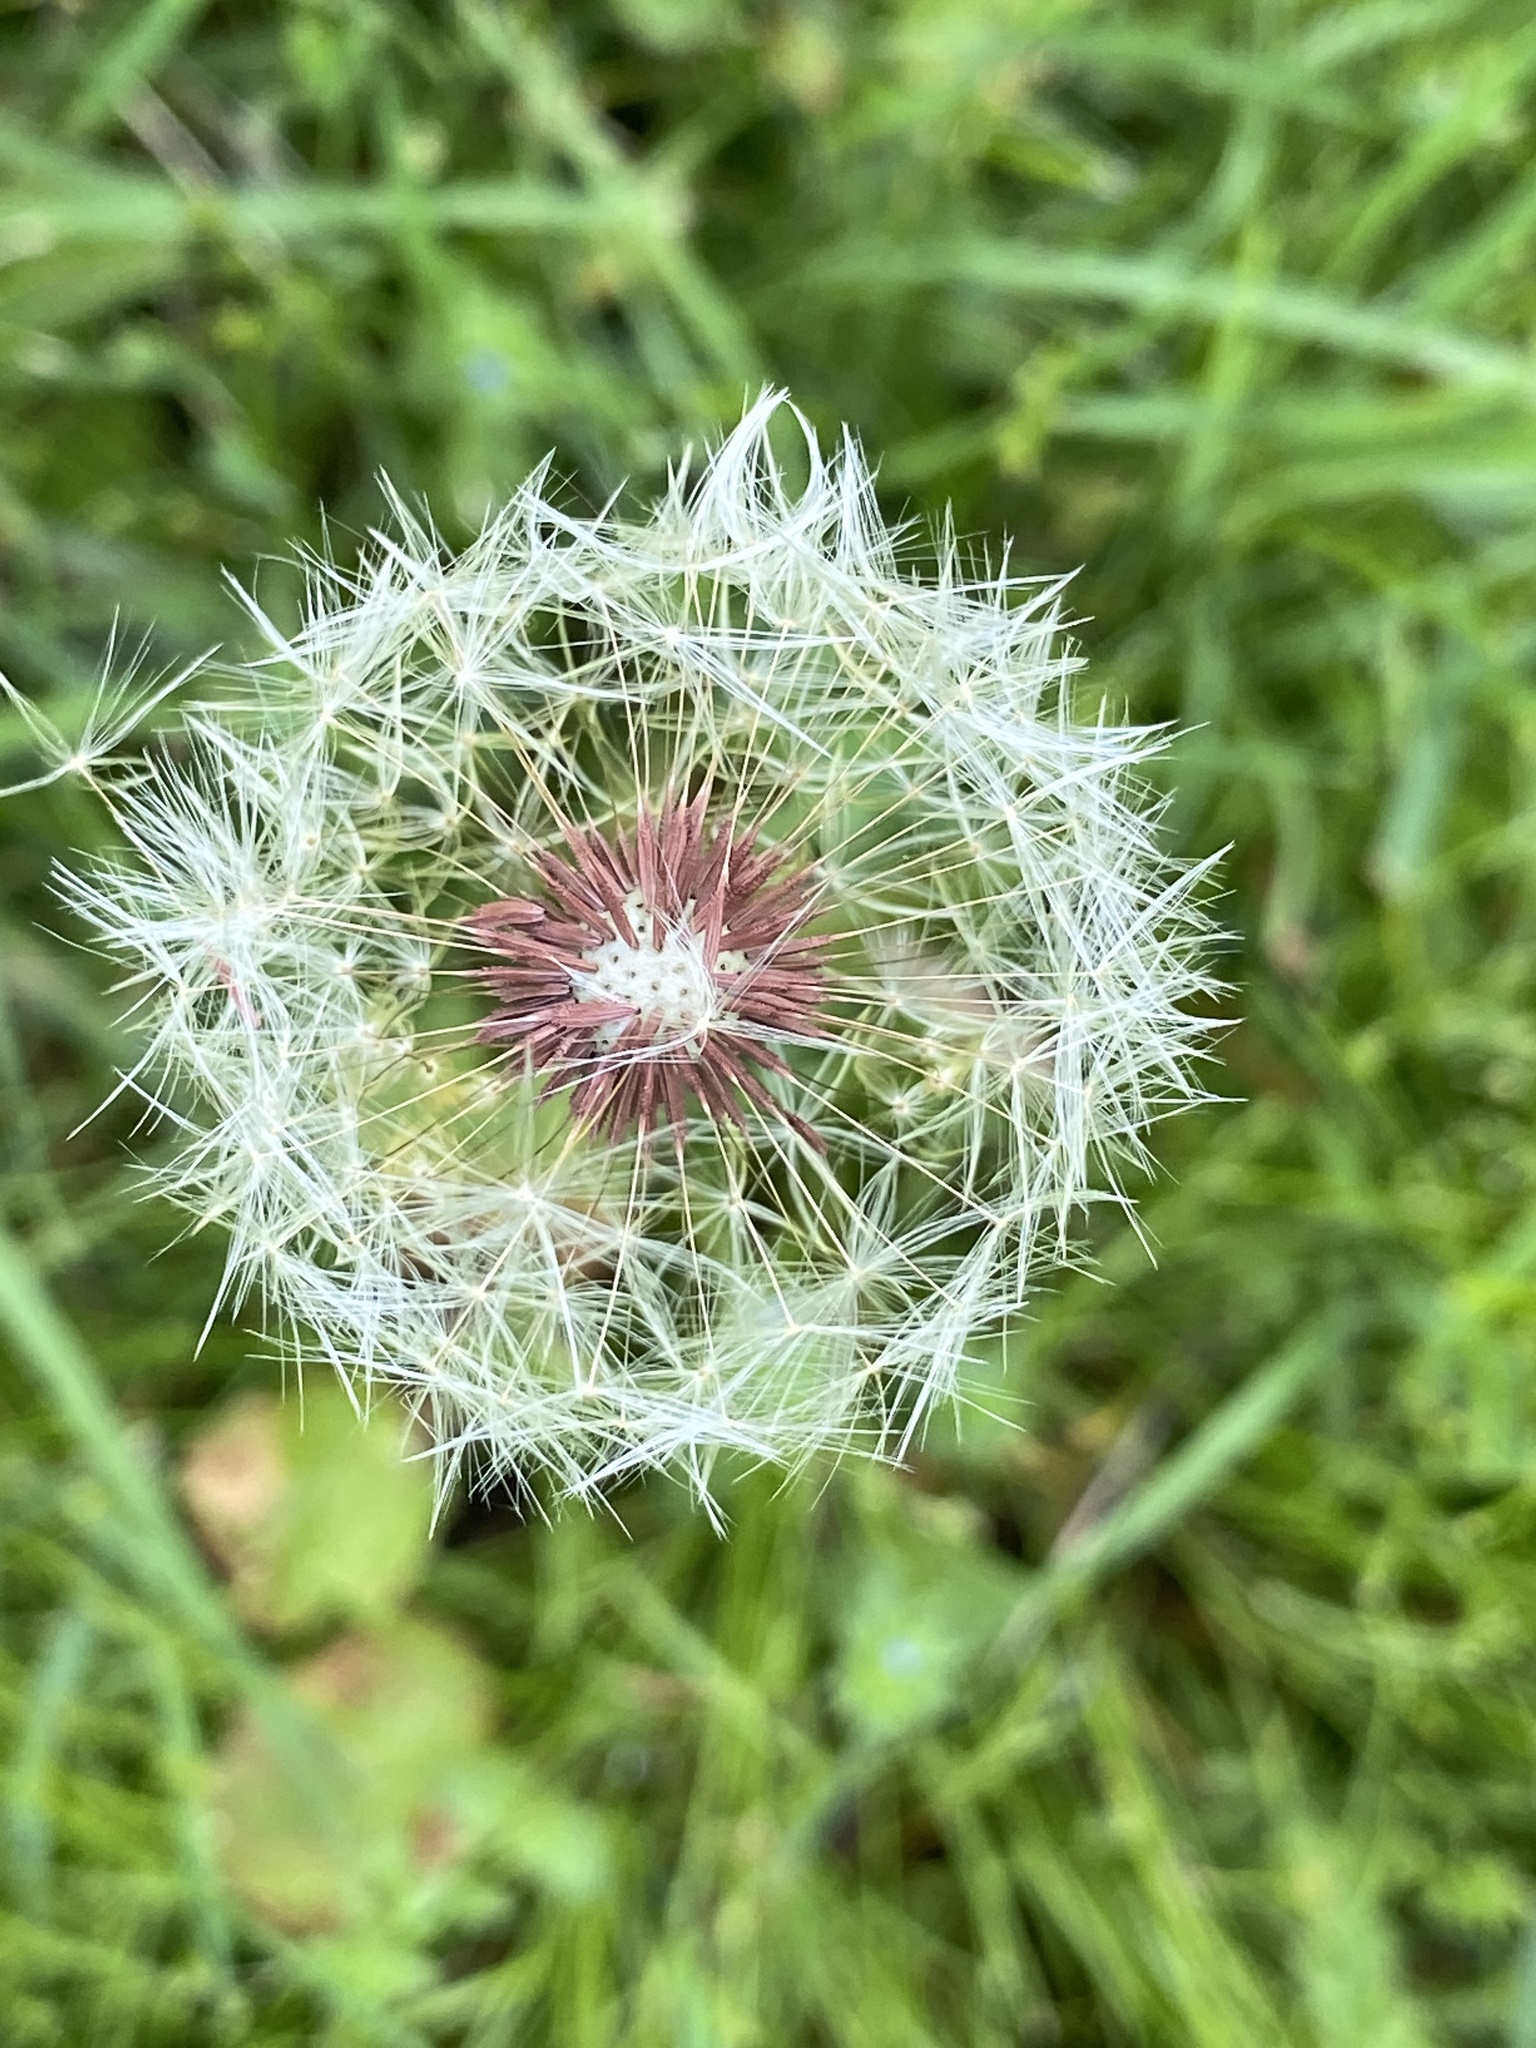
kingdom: Plantae
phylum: Tracheophyta
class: Magnoliopsida
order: Asterales
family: Asteraceae
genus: Taraxacum
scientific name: Taraxacum erythrospermum
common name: Rock dandelion
